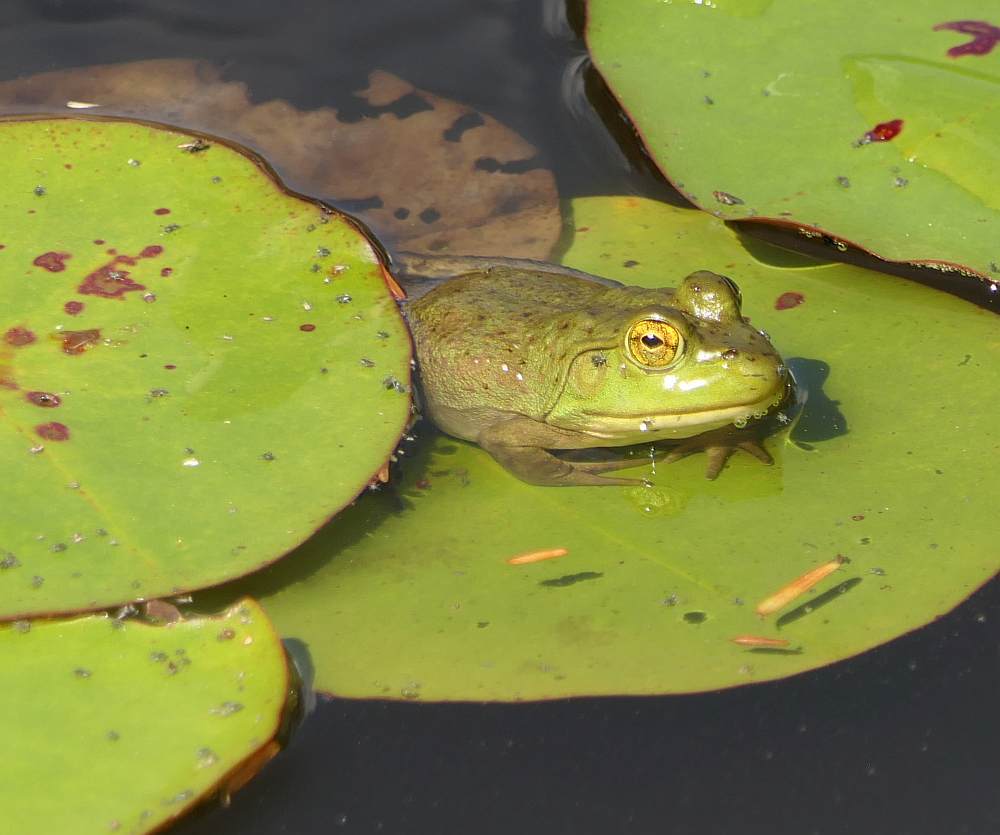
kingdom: Animalia
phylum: Chordata
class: Amphibia
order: Anura
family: Ranidae
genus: Lithobates
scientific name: Lithobates catesbeianus
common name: American bullfrog
